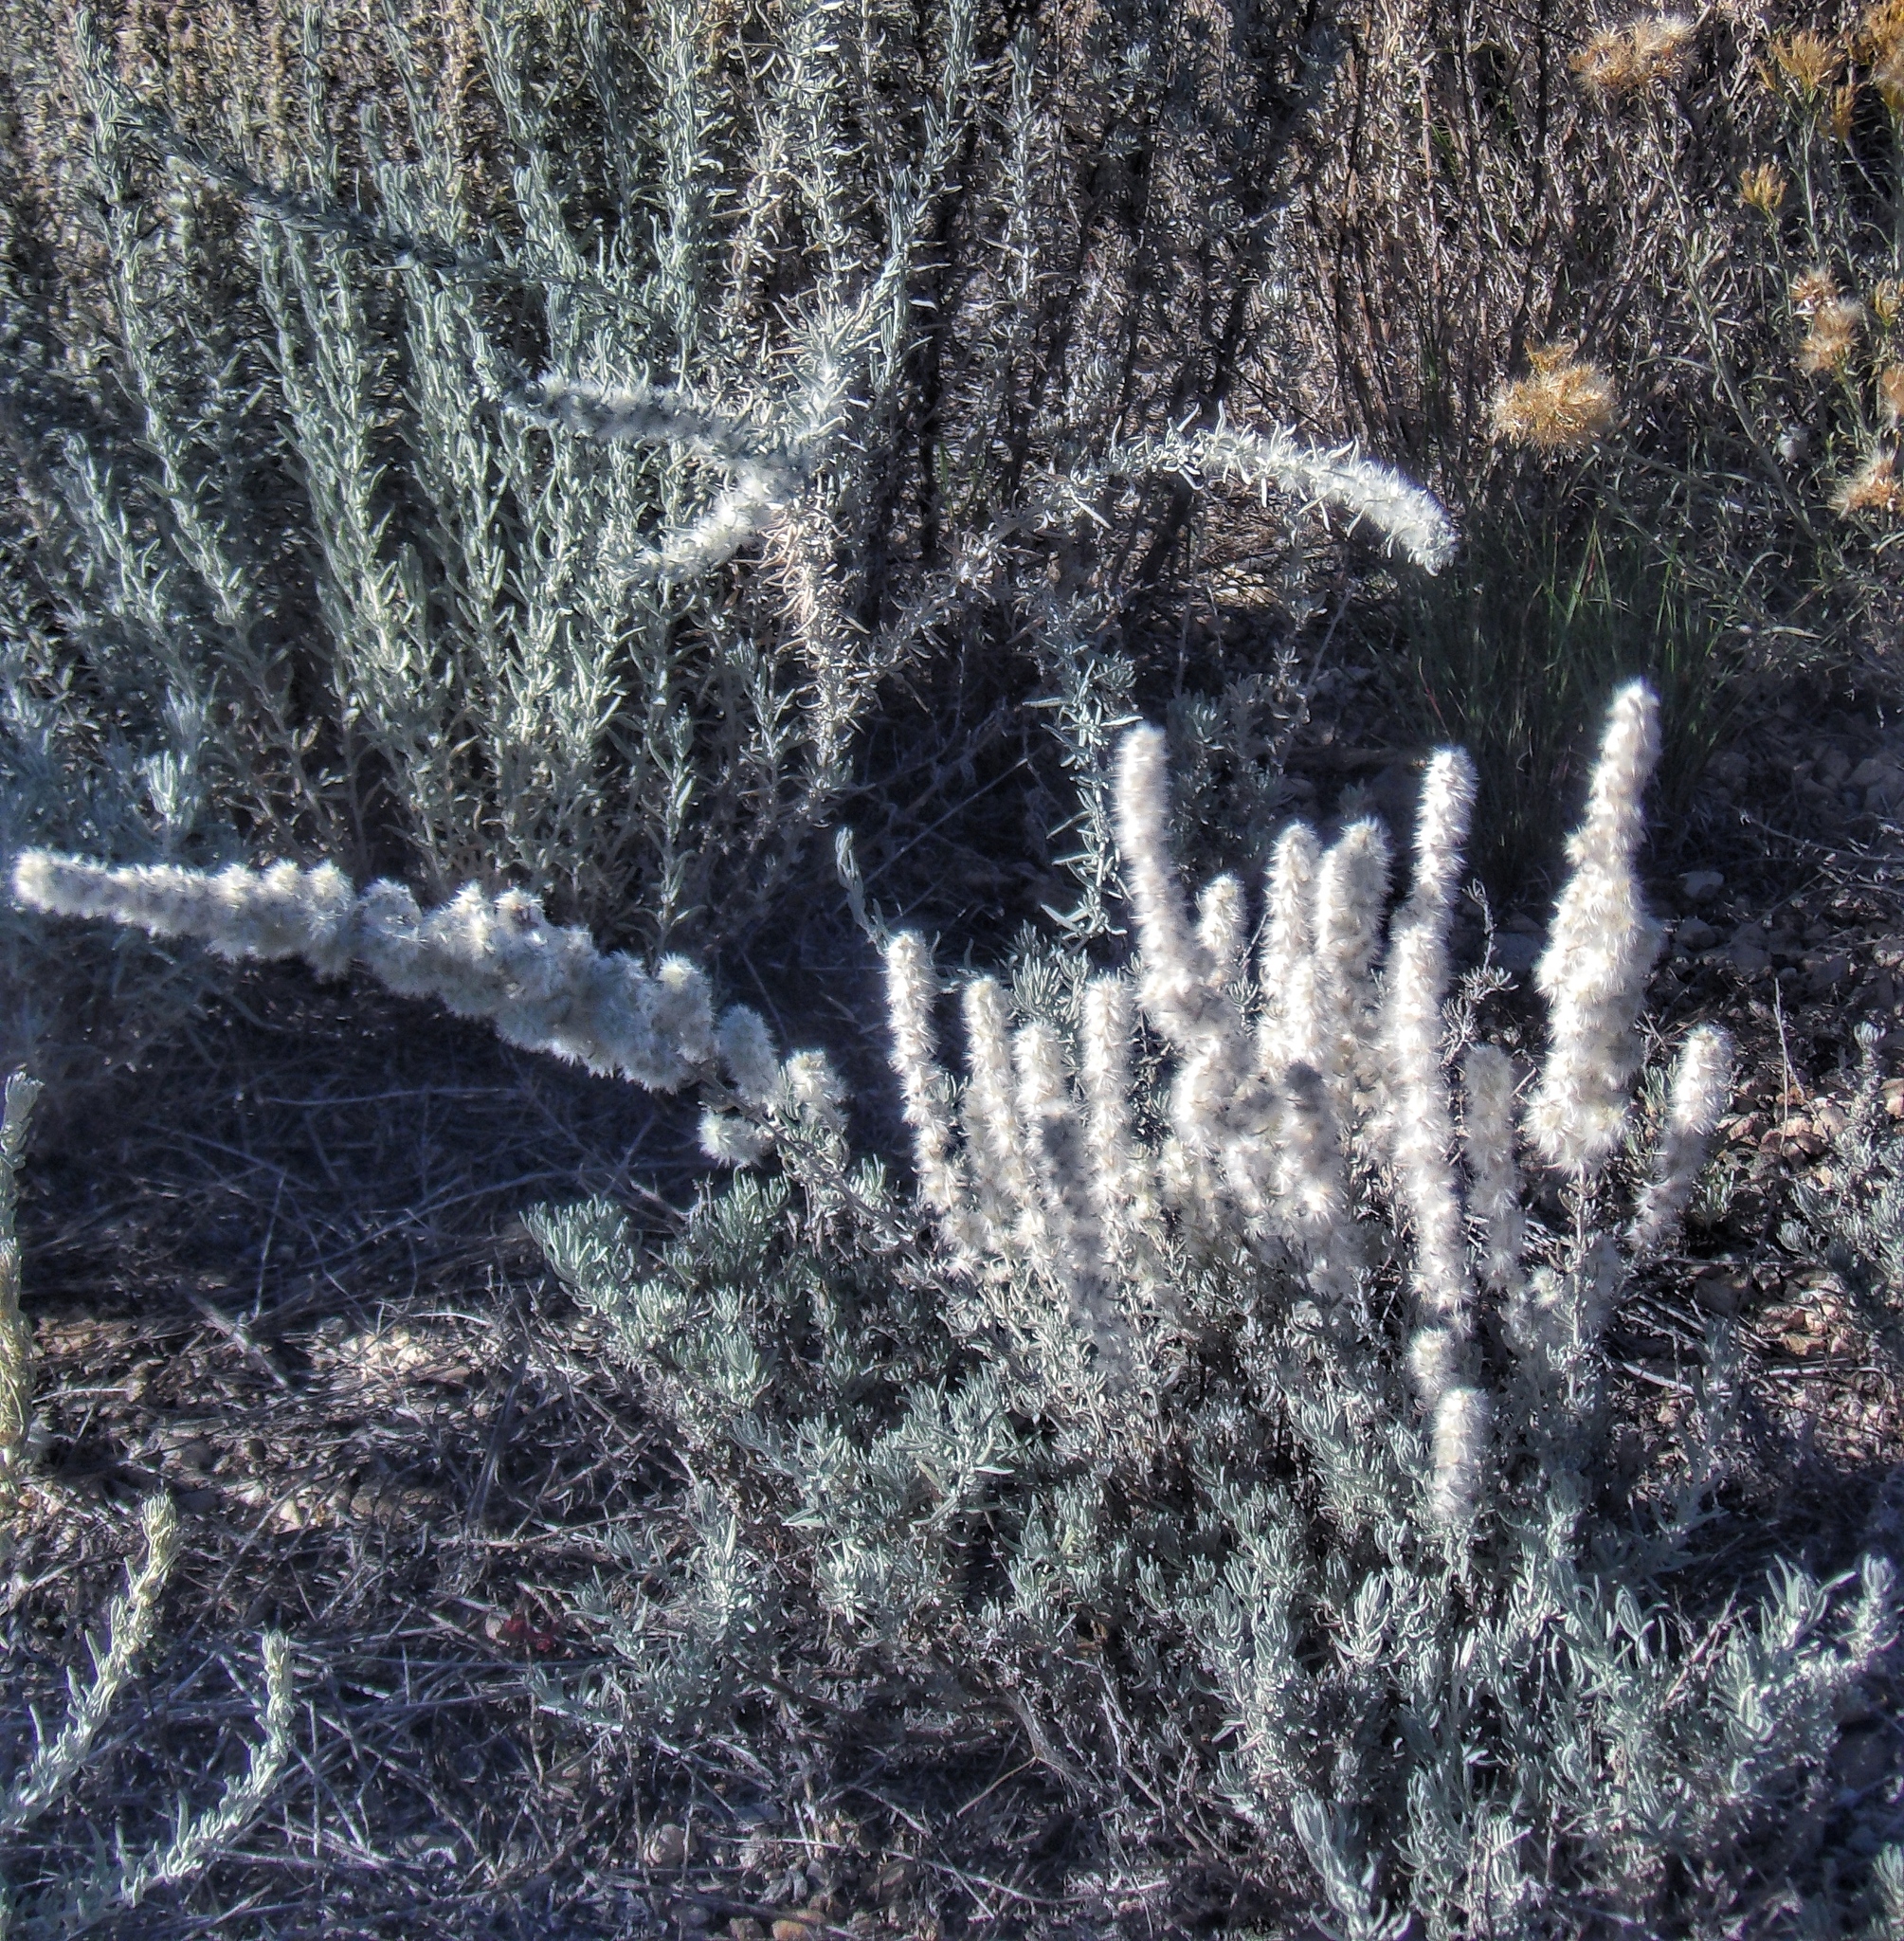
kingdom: Plantae
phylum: Tracheophyta
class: Magnoliopsida
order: Caryophyllales
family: Amaranthaceae
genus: Krascheninnikovia
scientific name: Krascheninnikovia lanata
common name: Winterfat
